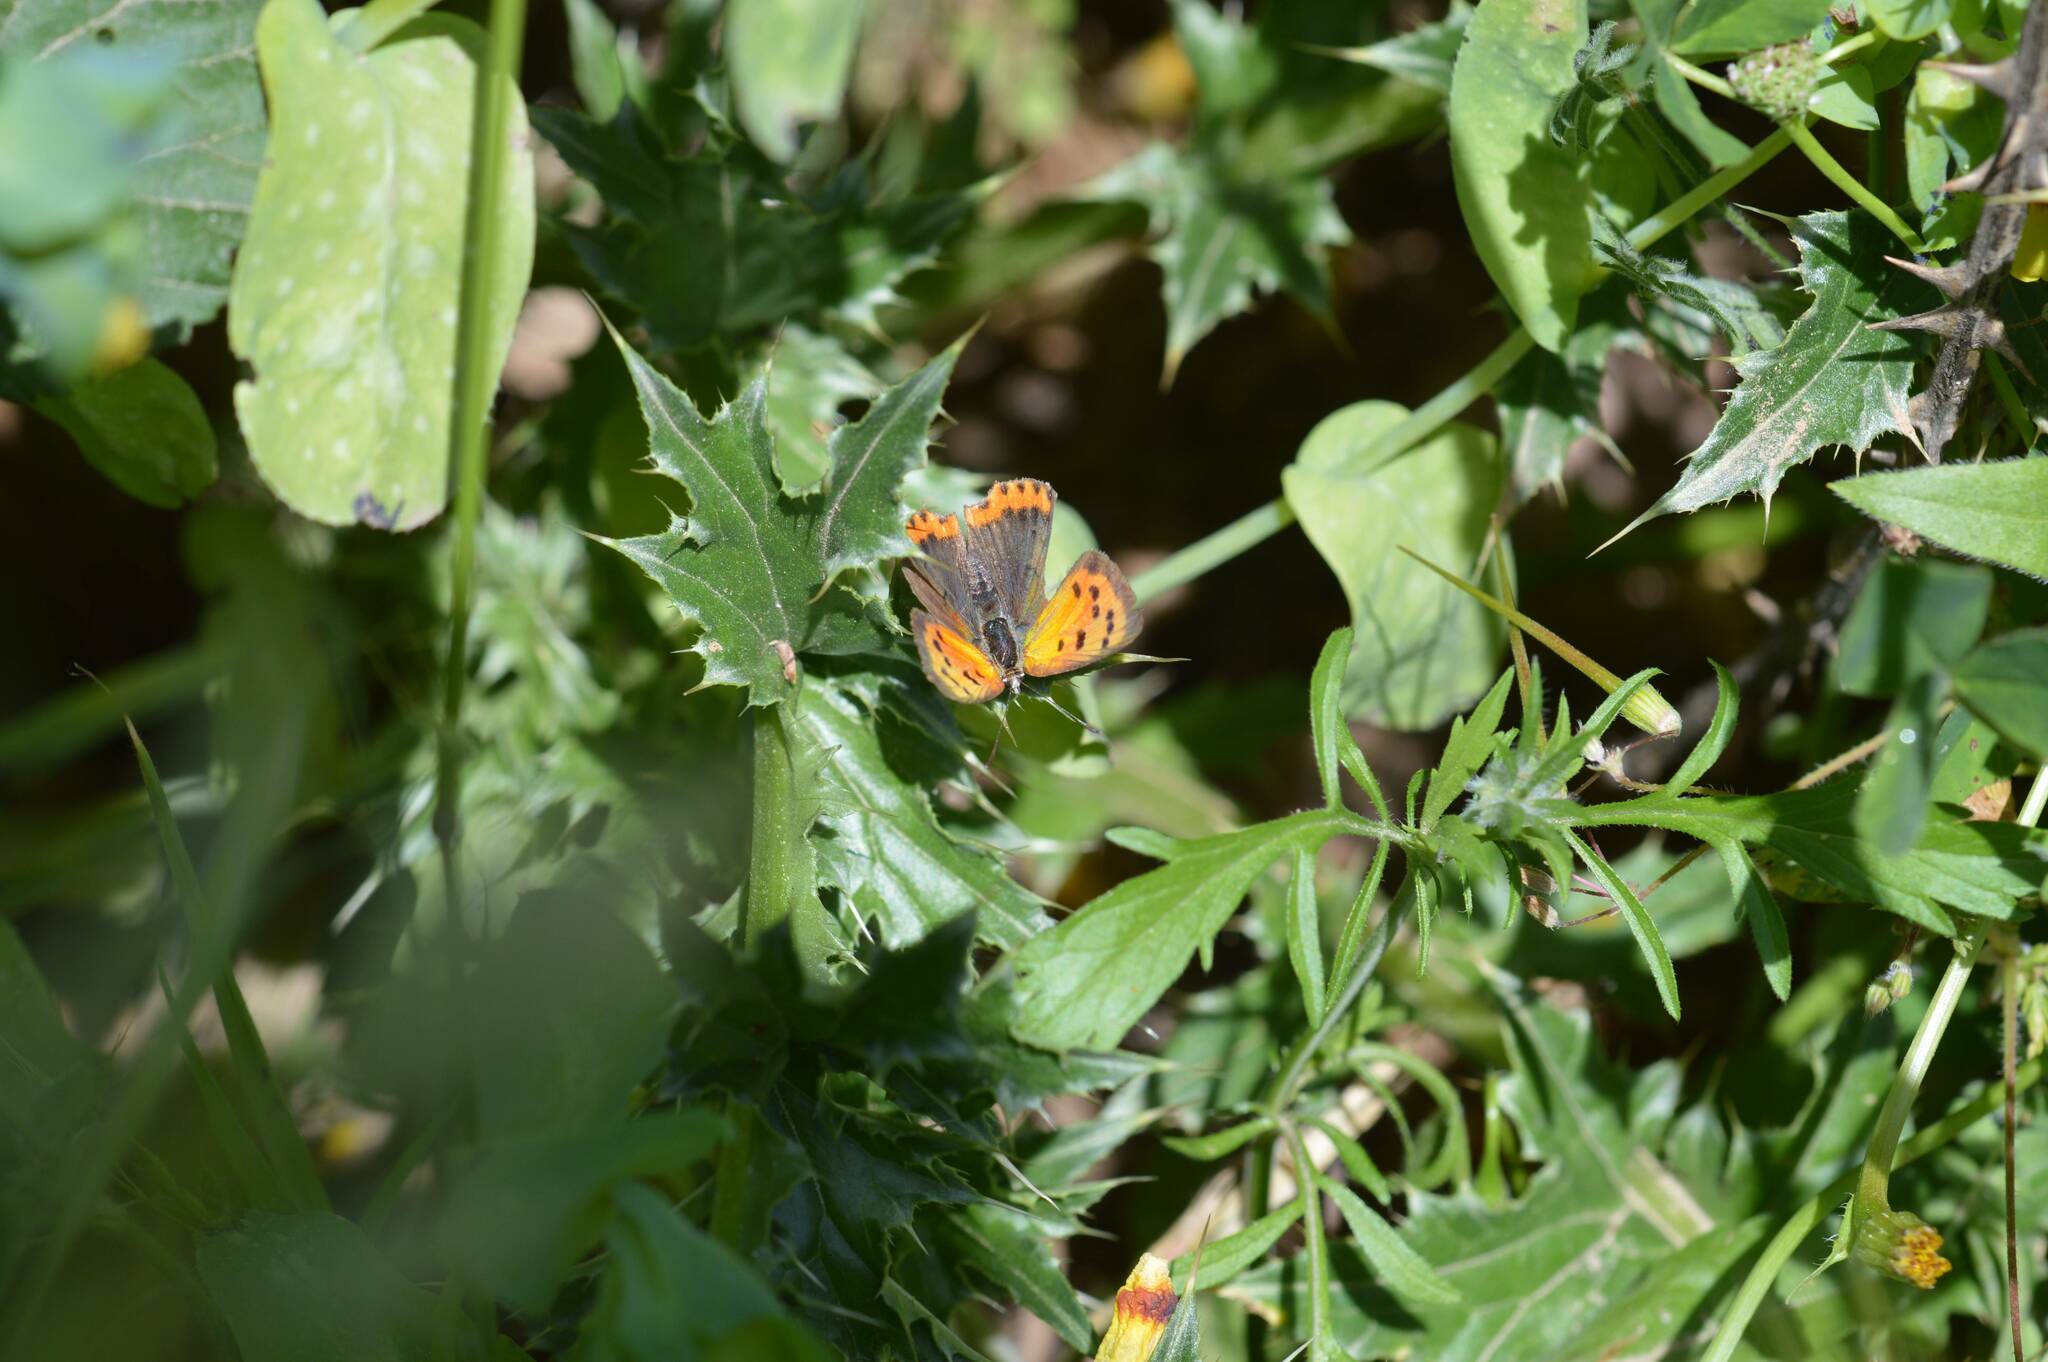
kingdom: Animalia
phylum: Arthropoda
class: Insecta
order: Lepidoptera
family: Lycaenidae
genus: Lycaena
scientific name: Lycaena phlaeas
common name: Small copper
